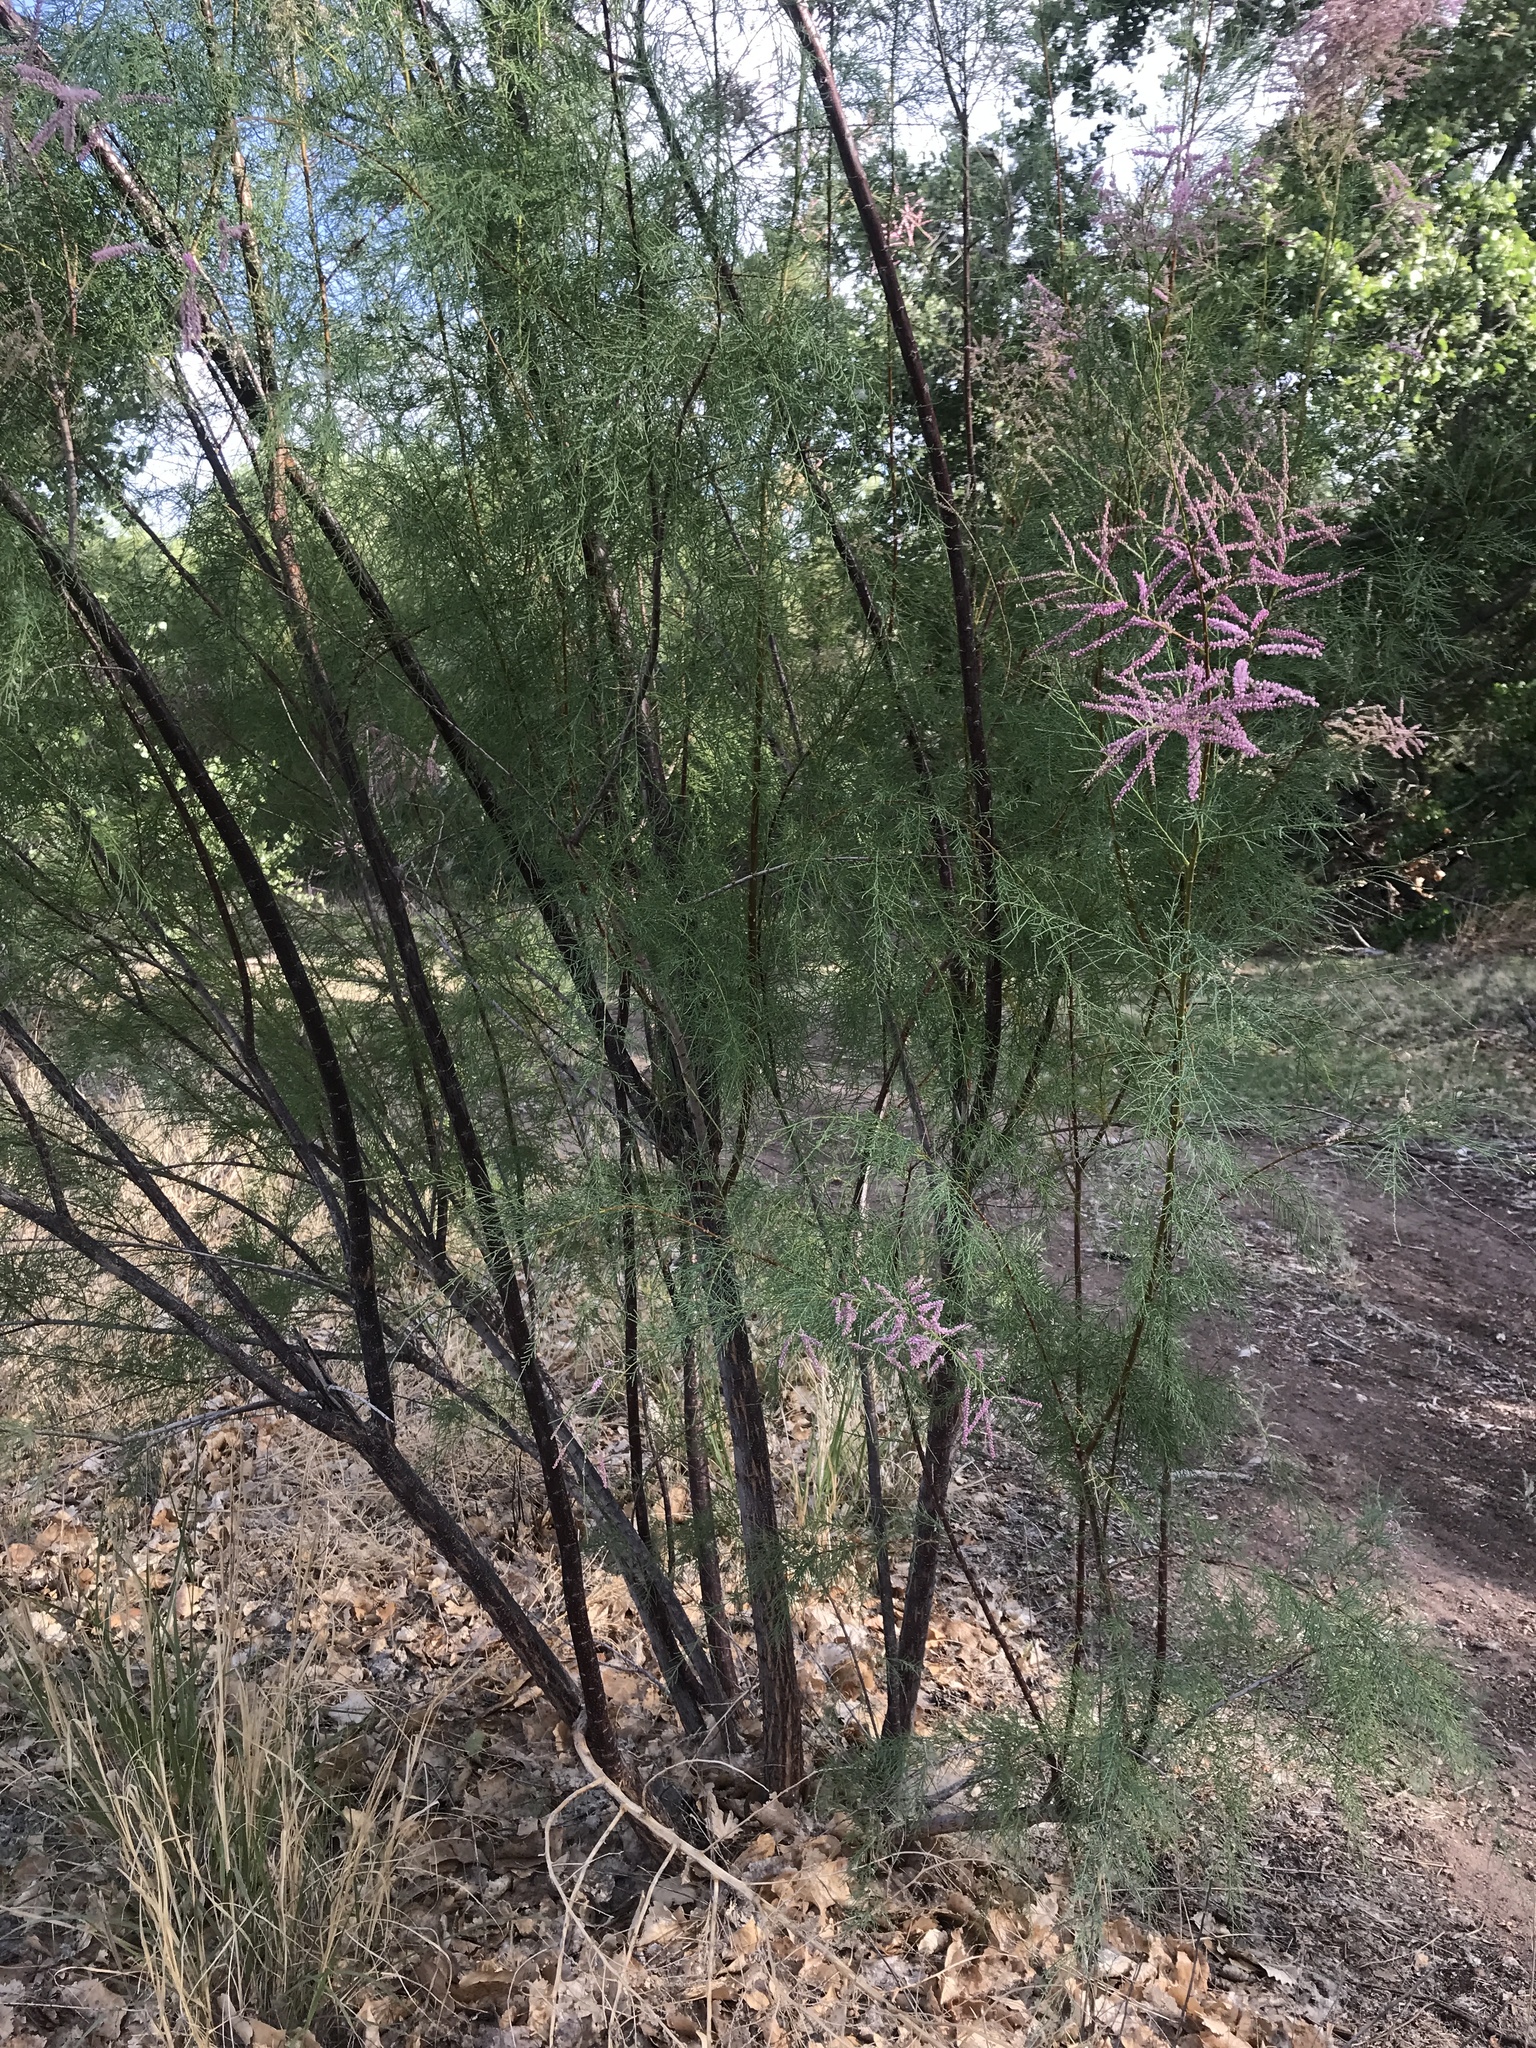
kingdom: Plantae
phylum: Tracheophyta
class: Magnoliopsida
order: Caryophyllales
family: Tamaricaceae
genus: Tamarix
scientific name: Tamarix ramosissima
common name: Pink tamarisk
